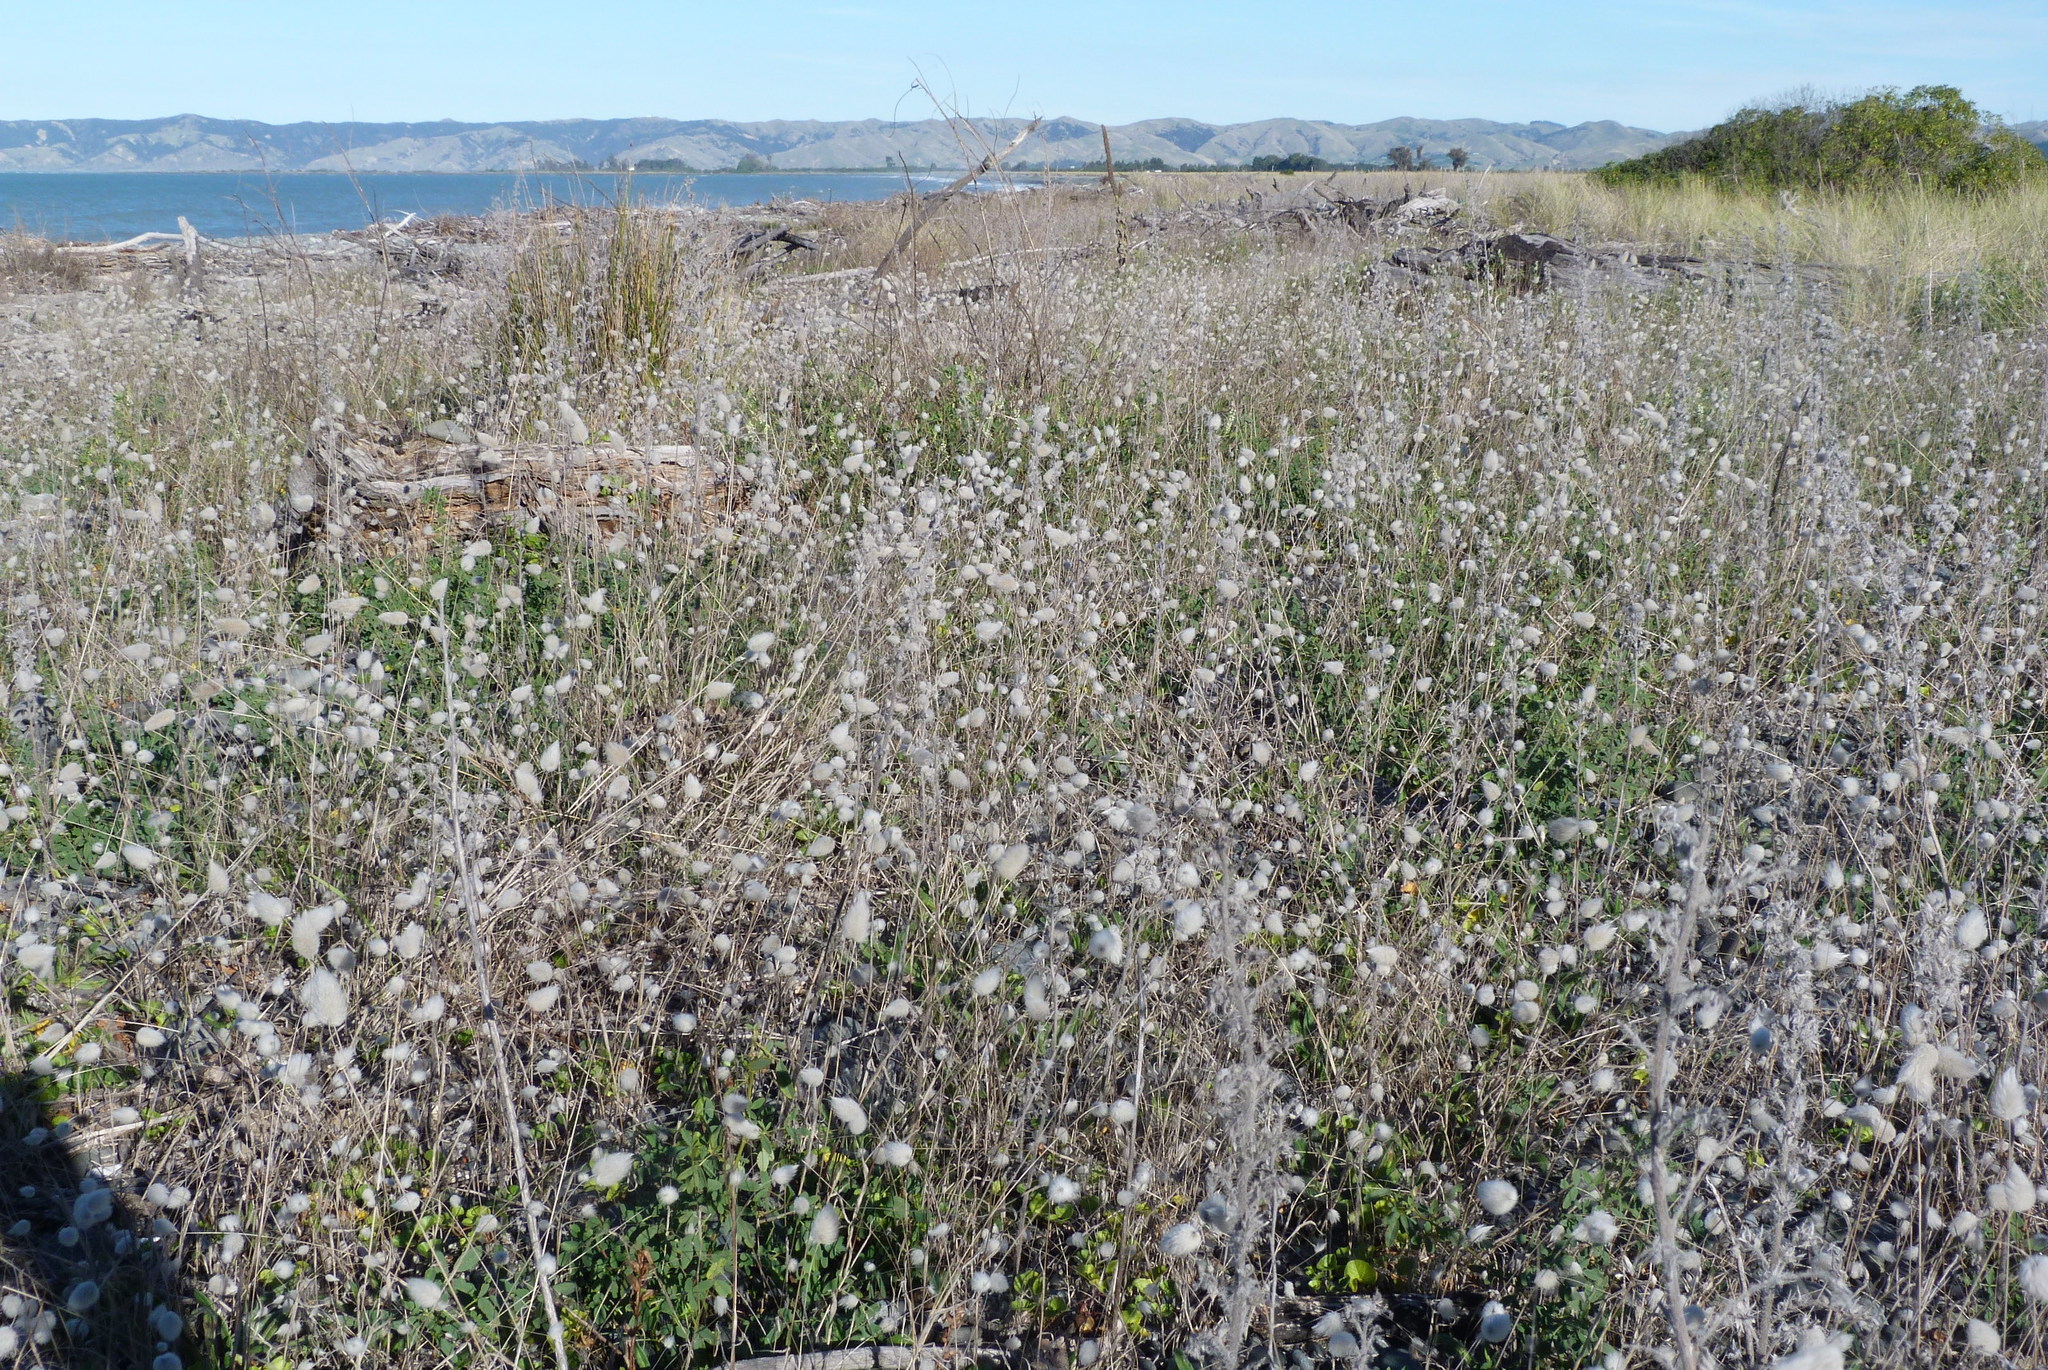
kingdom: Plantae
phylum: Tracheophyta
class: Liliopsida
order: Poales
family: Poaceae
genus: Lagurus
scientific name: Lagurus ovatus
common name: Hare's-tail
